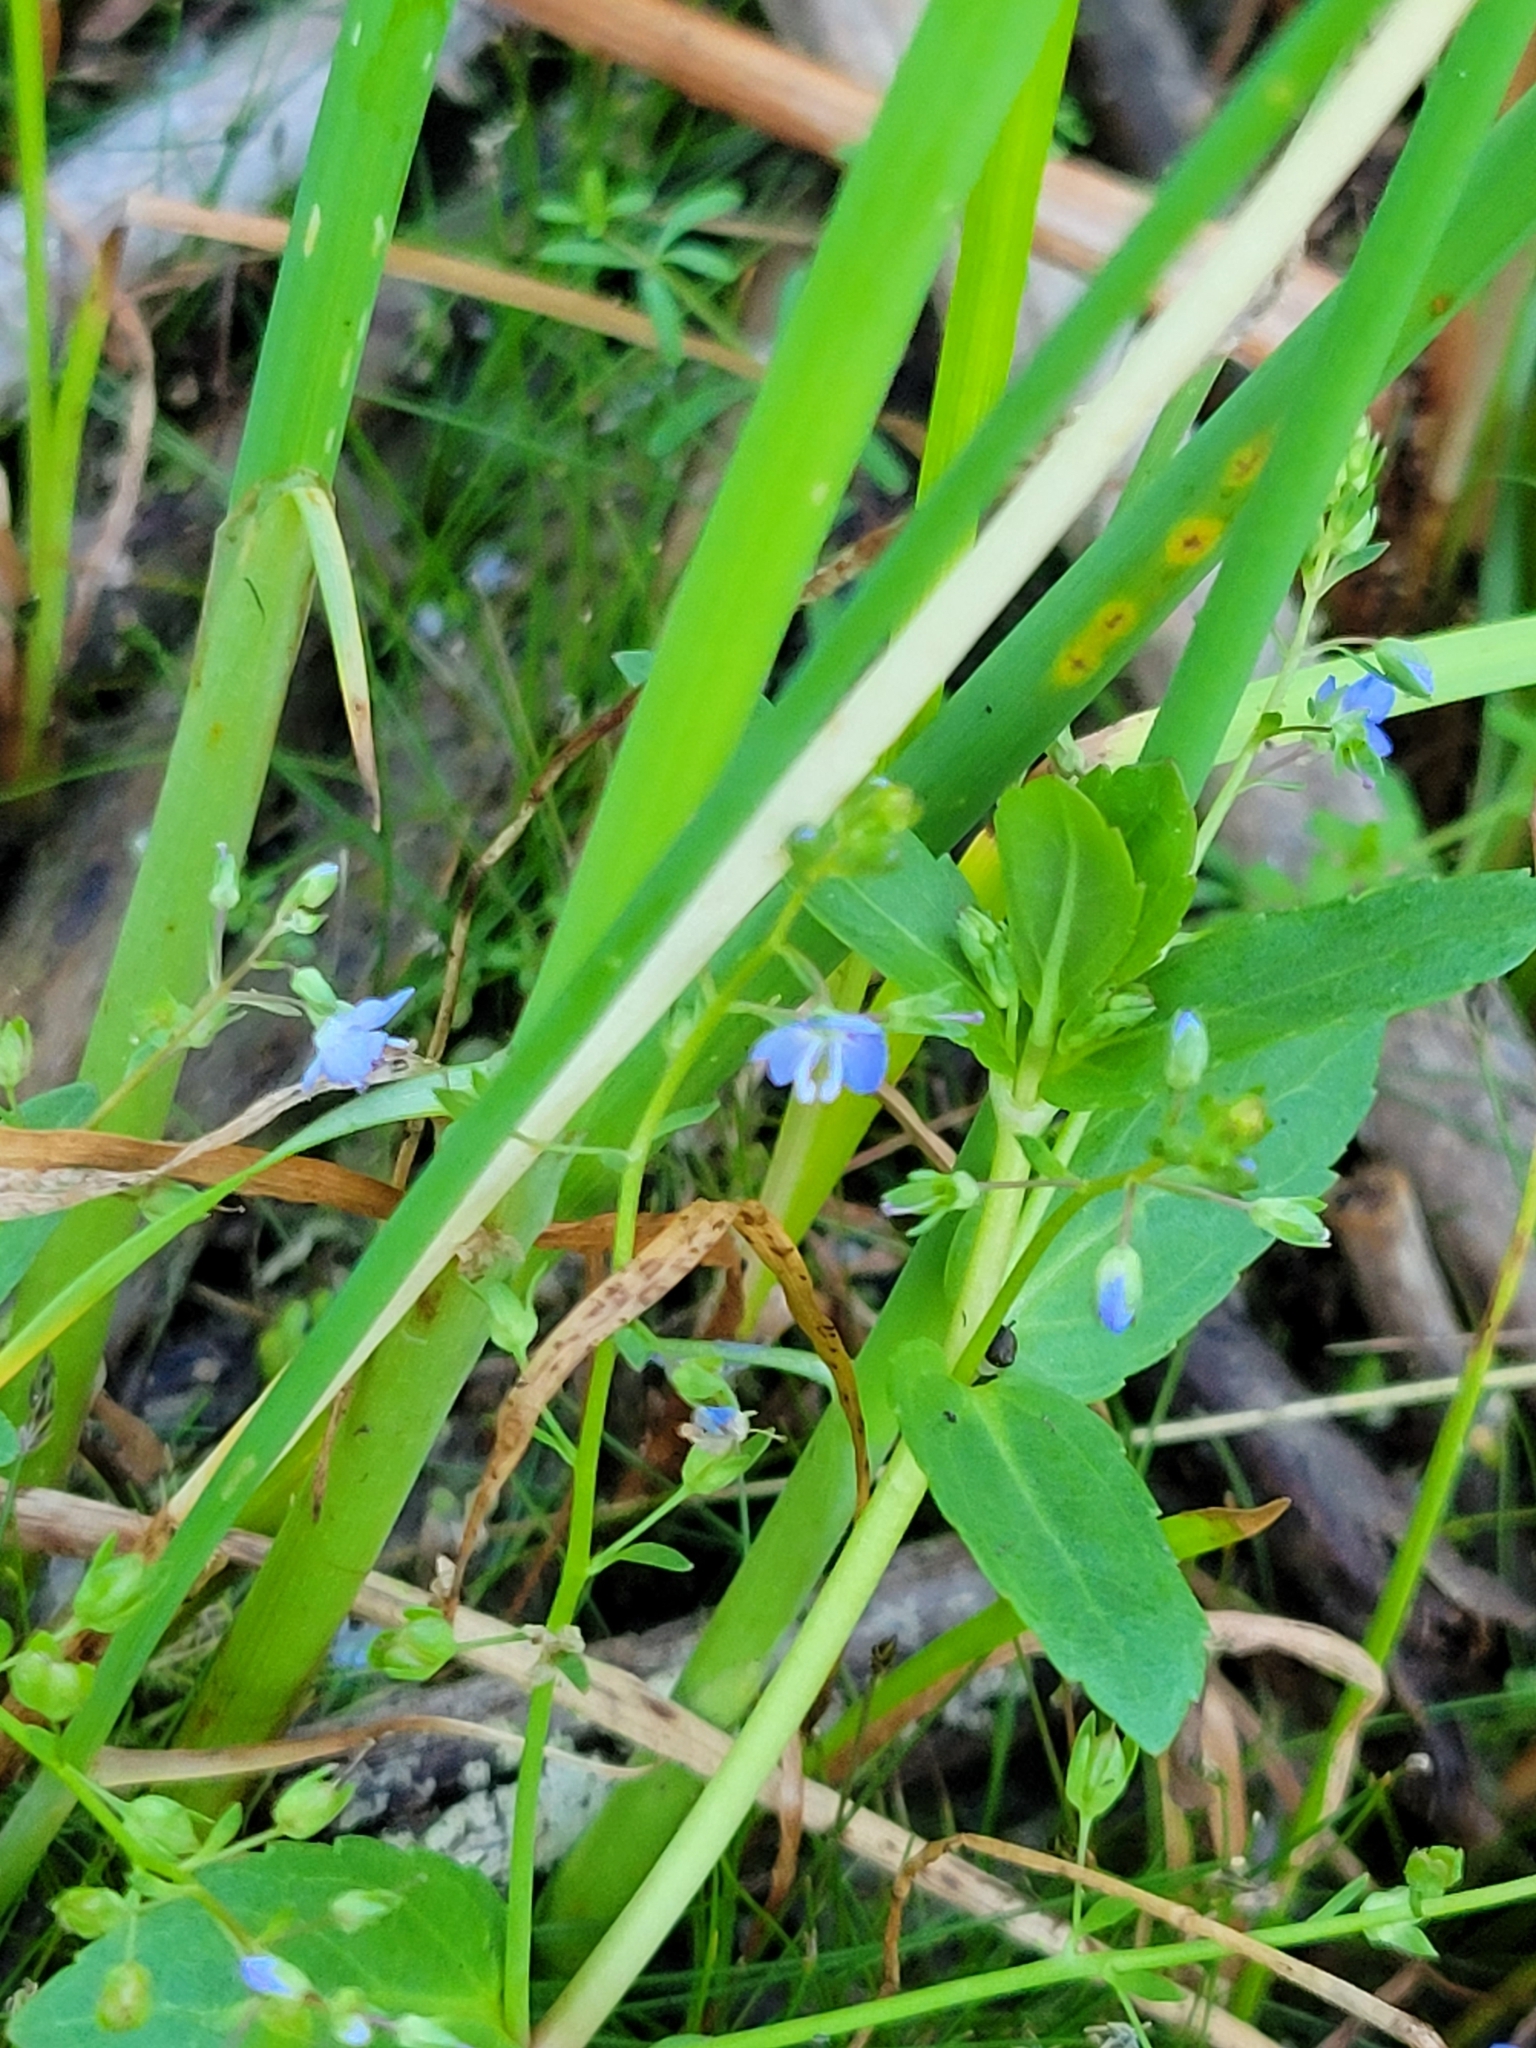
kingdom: Plantae
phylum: Tracheophyta
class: Magnoliopsida
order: Lamiales
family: Plantaginaceae
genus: Veronica
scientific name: Veronica americana
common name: American brooklime
